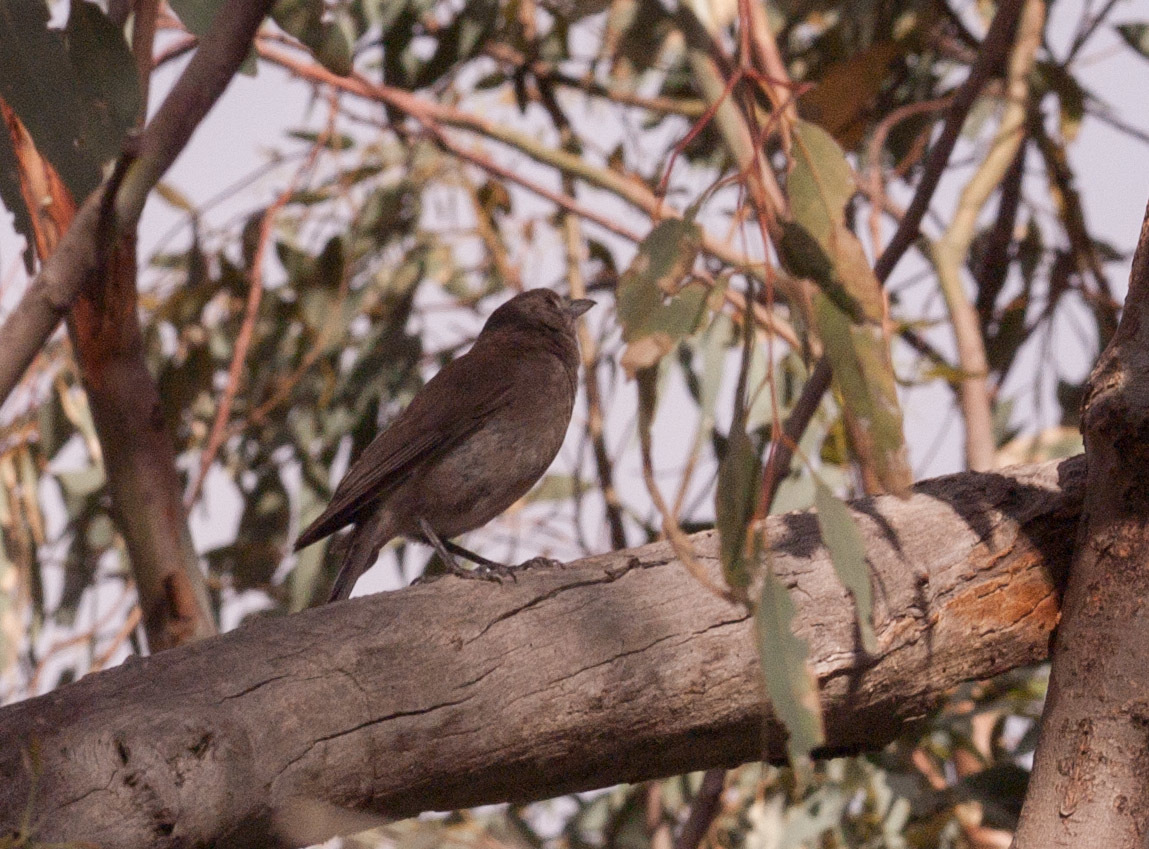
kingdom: Animalia
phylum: Chordata
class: Aves
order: Passeriformes
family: Pachycephalidae
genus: Colluricincla
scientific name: Colluricincla harmonica
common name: Grey shrikethrush
